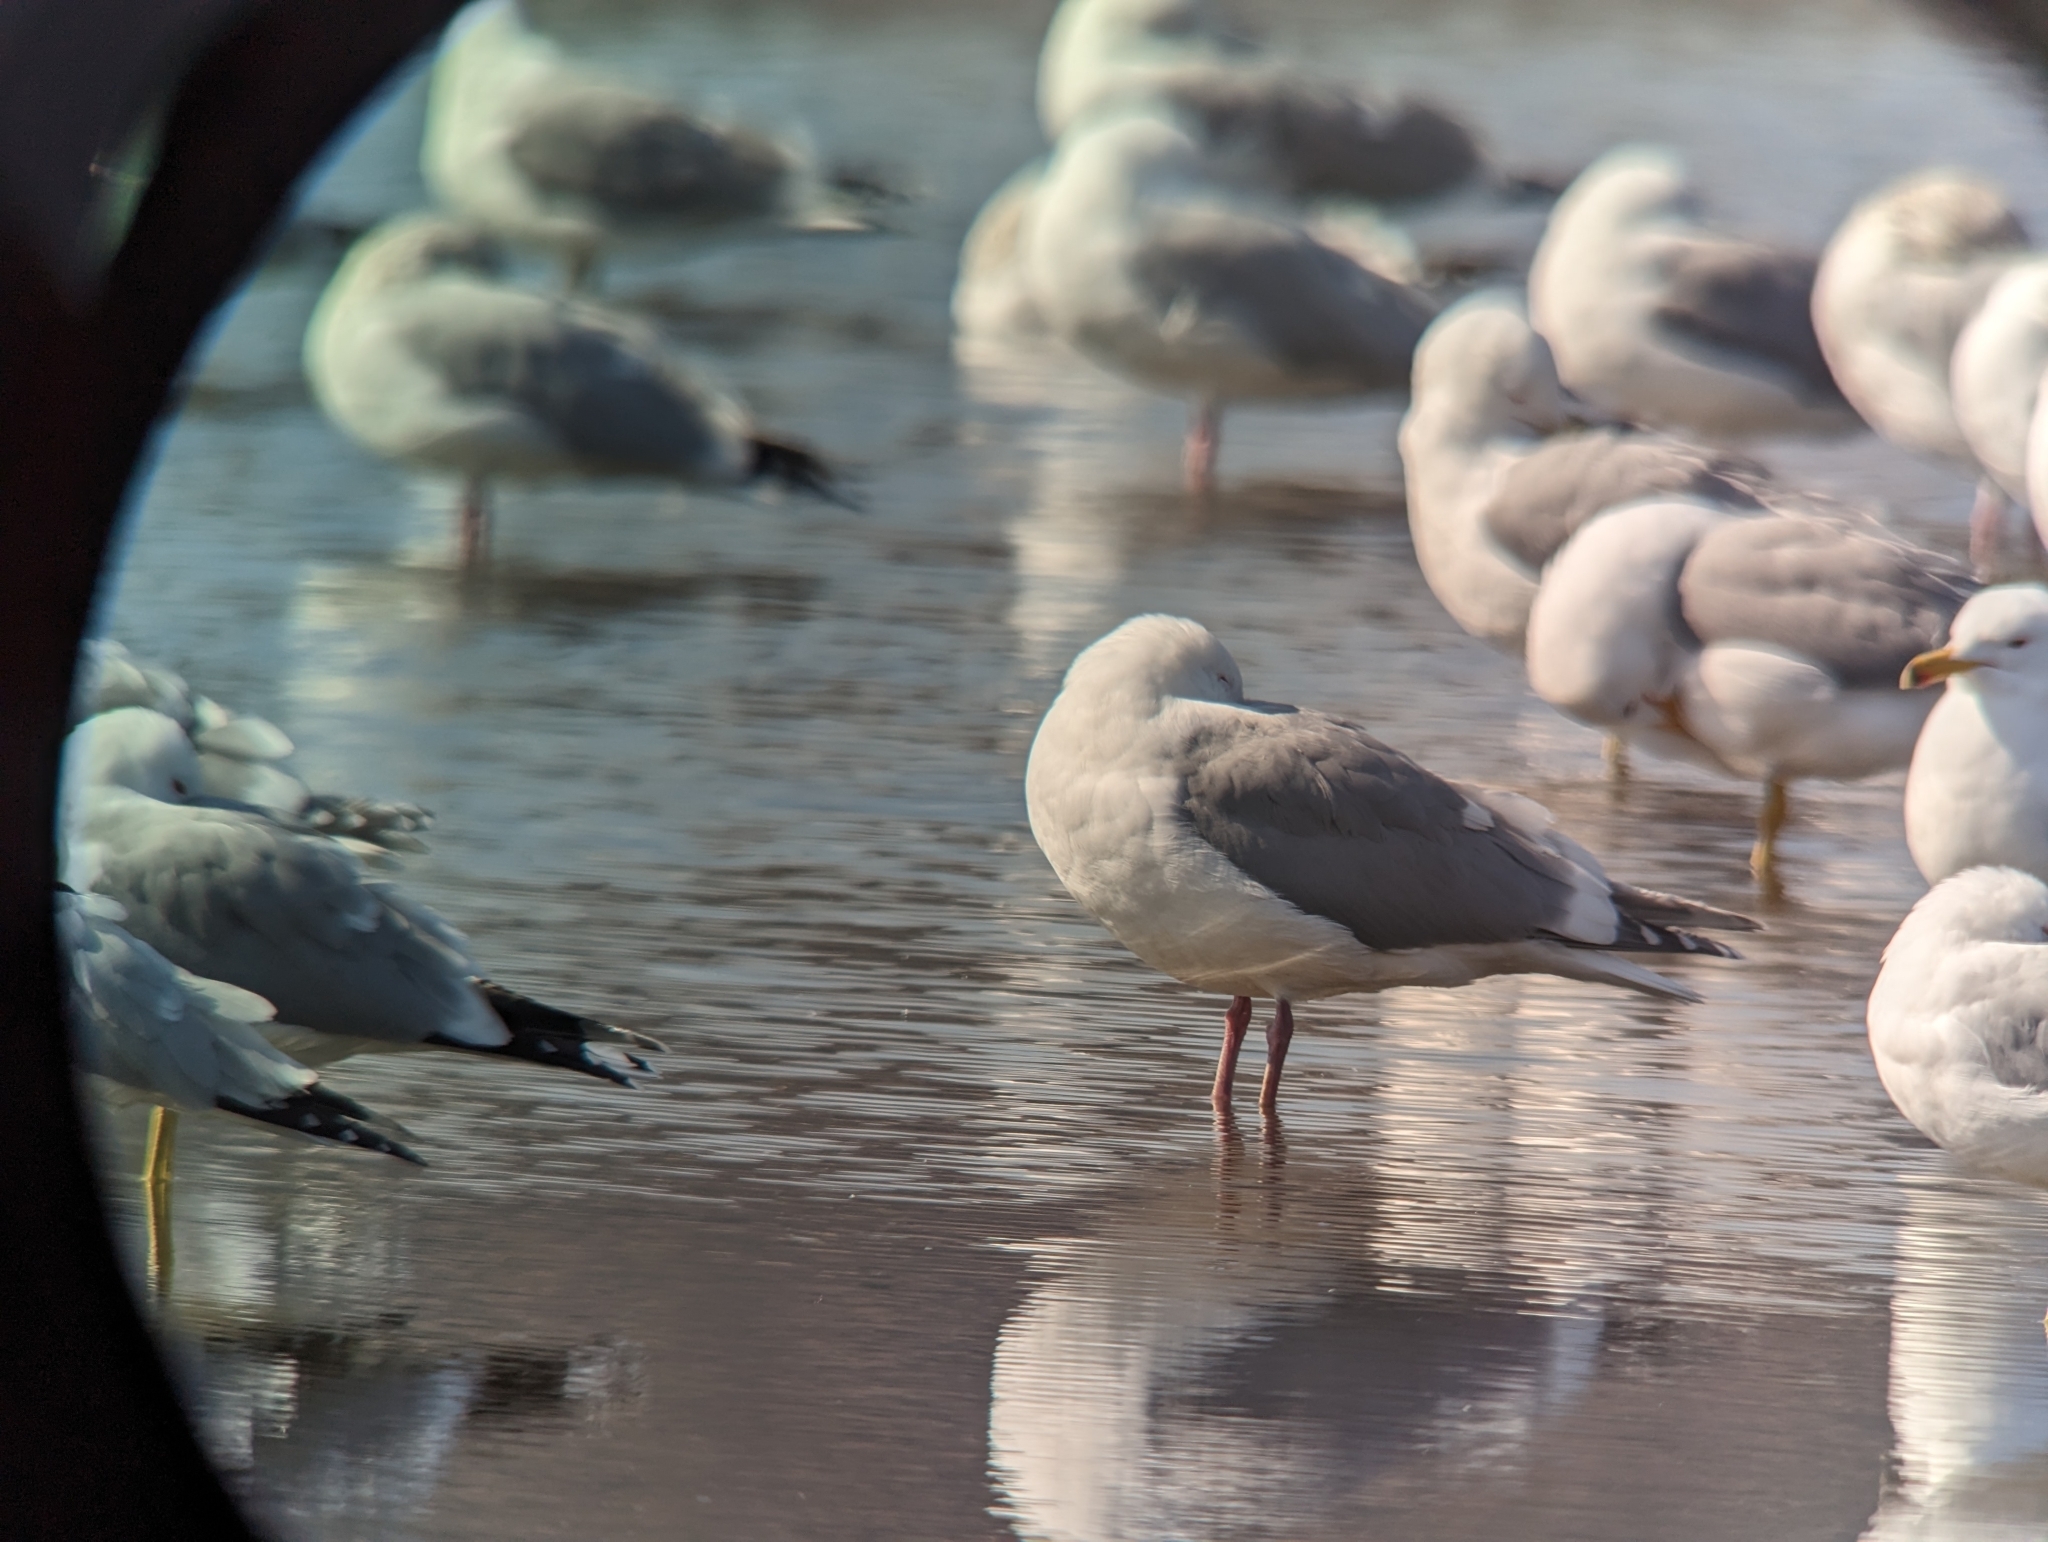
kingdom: Animalia
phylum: Chordata
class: Aves
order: Charadriiformes
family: Laridae
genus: Larus
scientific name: Larus
